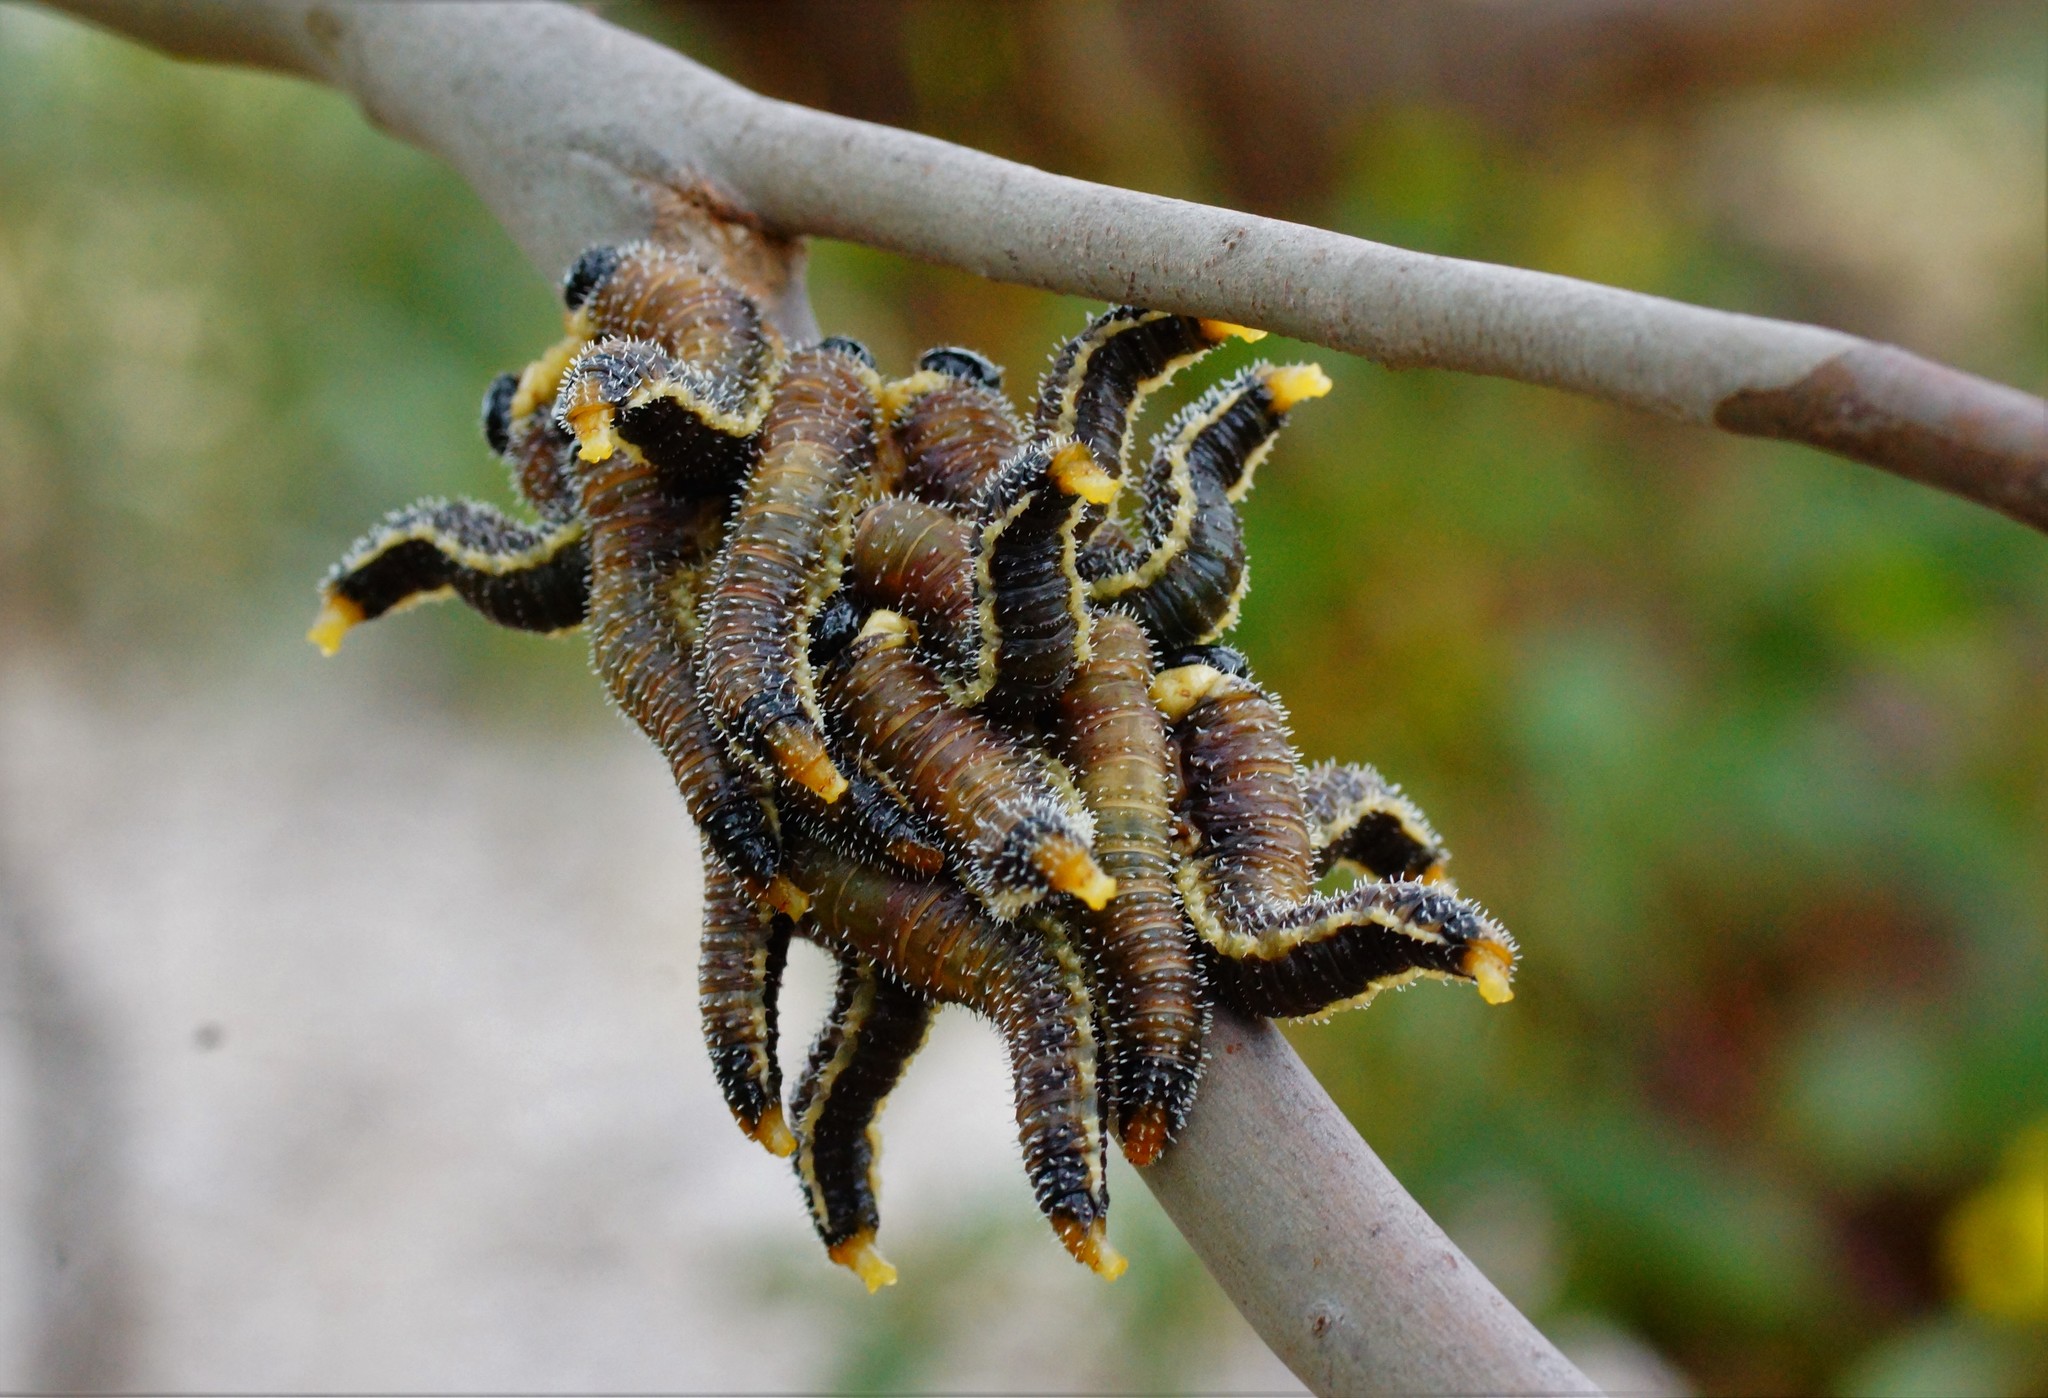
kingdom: Animalia
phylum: Arthropoda
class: Insecta
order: Hymenoptera
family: Pergidae
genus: Perga
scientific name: Perga affinis
